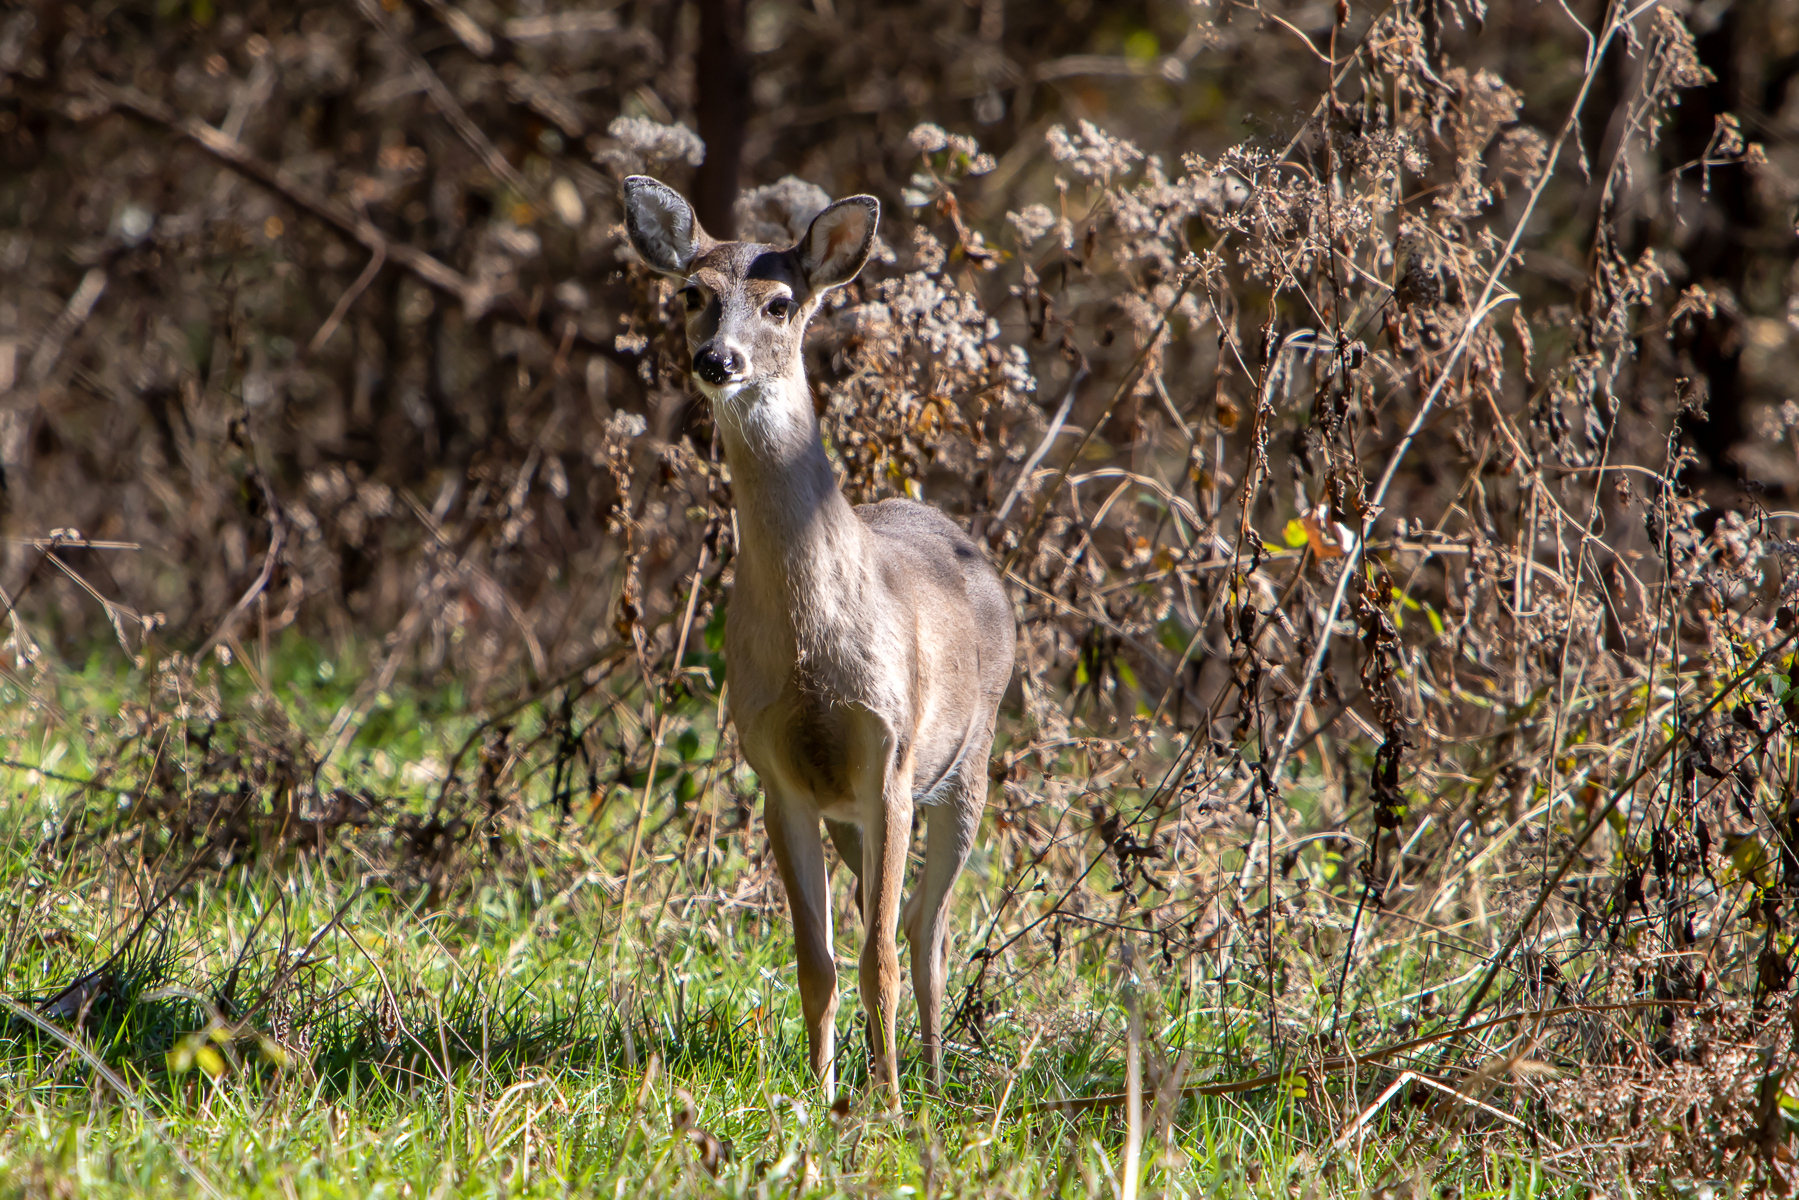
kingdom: Animalia
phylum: Chordata
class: Mammalia
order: Artiodactyla
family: Cervidae
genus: Odocoileus
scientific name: Odocoileus virginianus
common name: White-tailed deer
